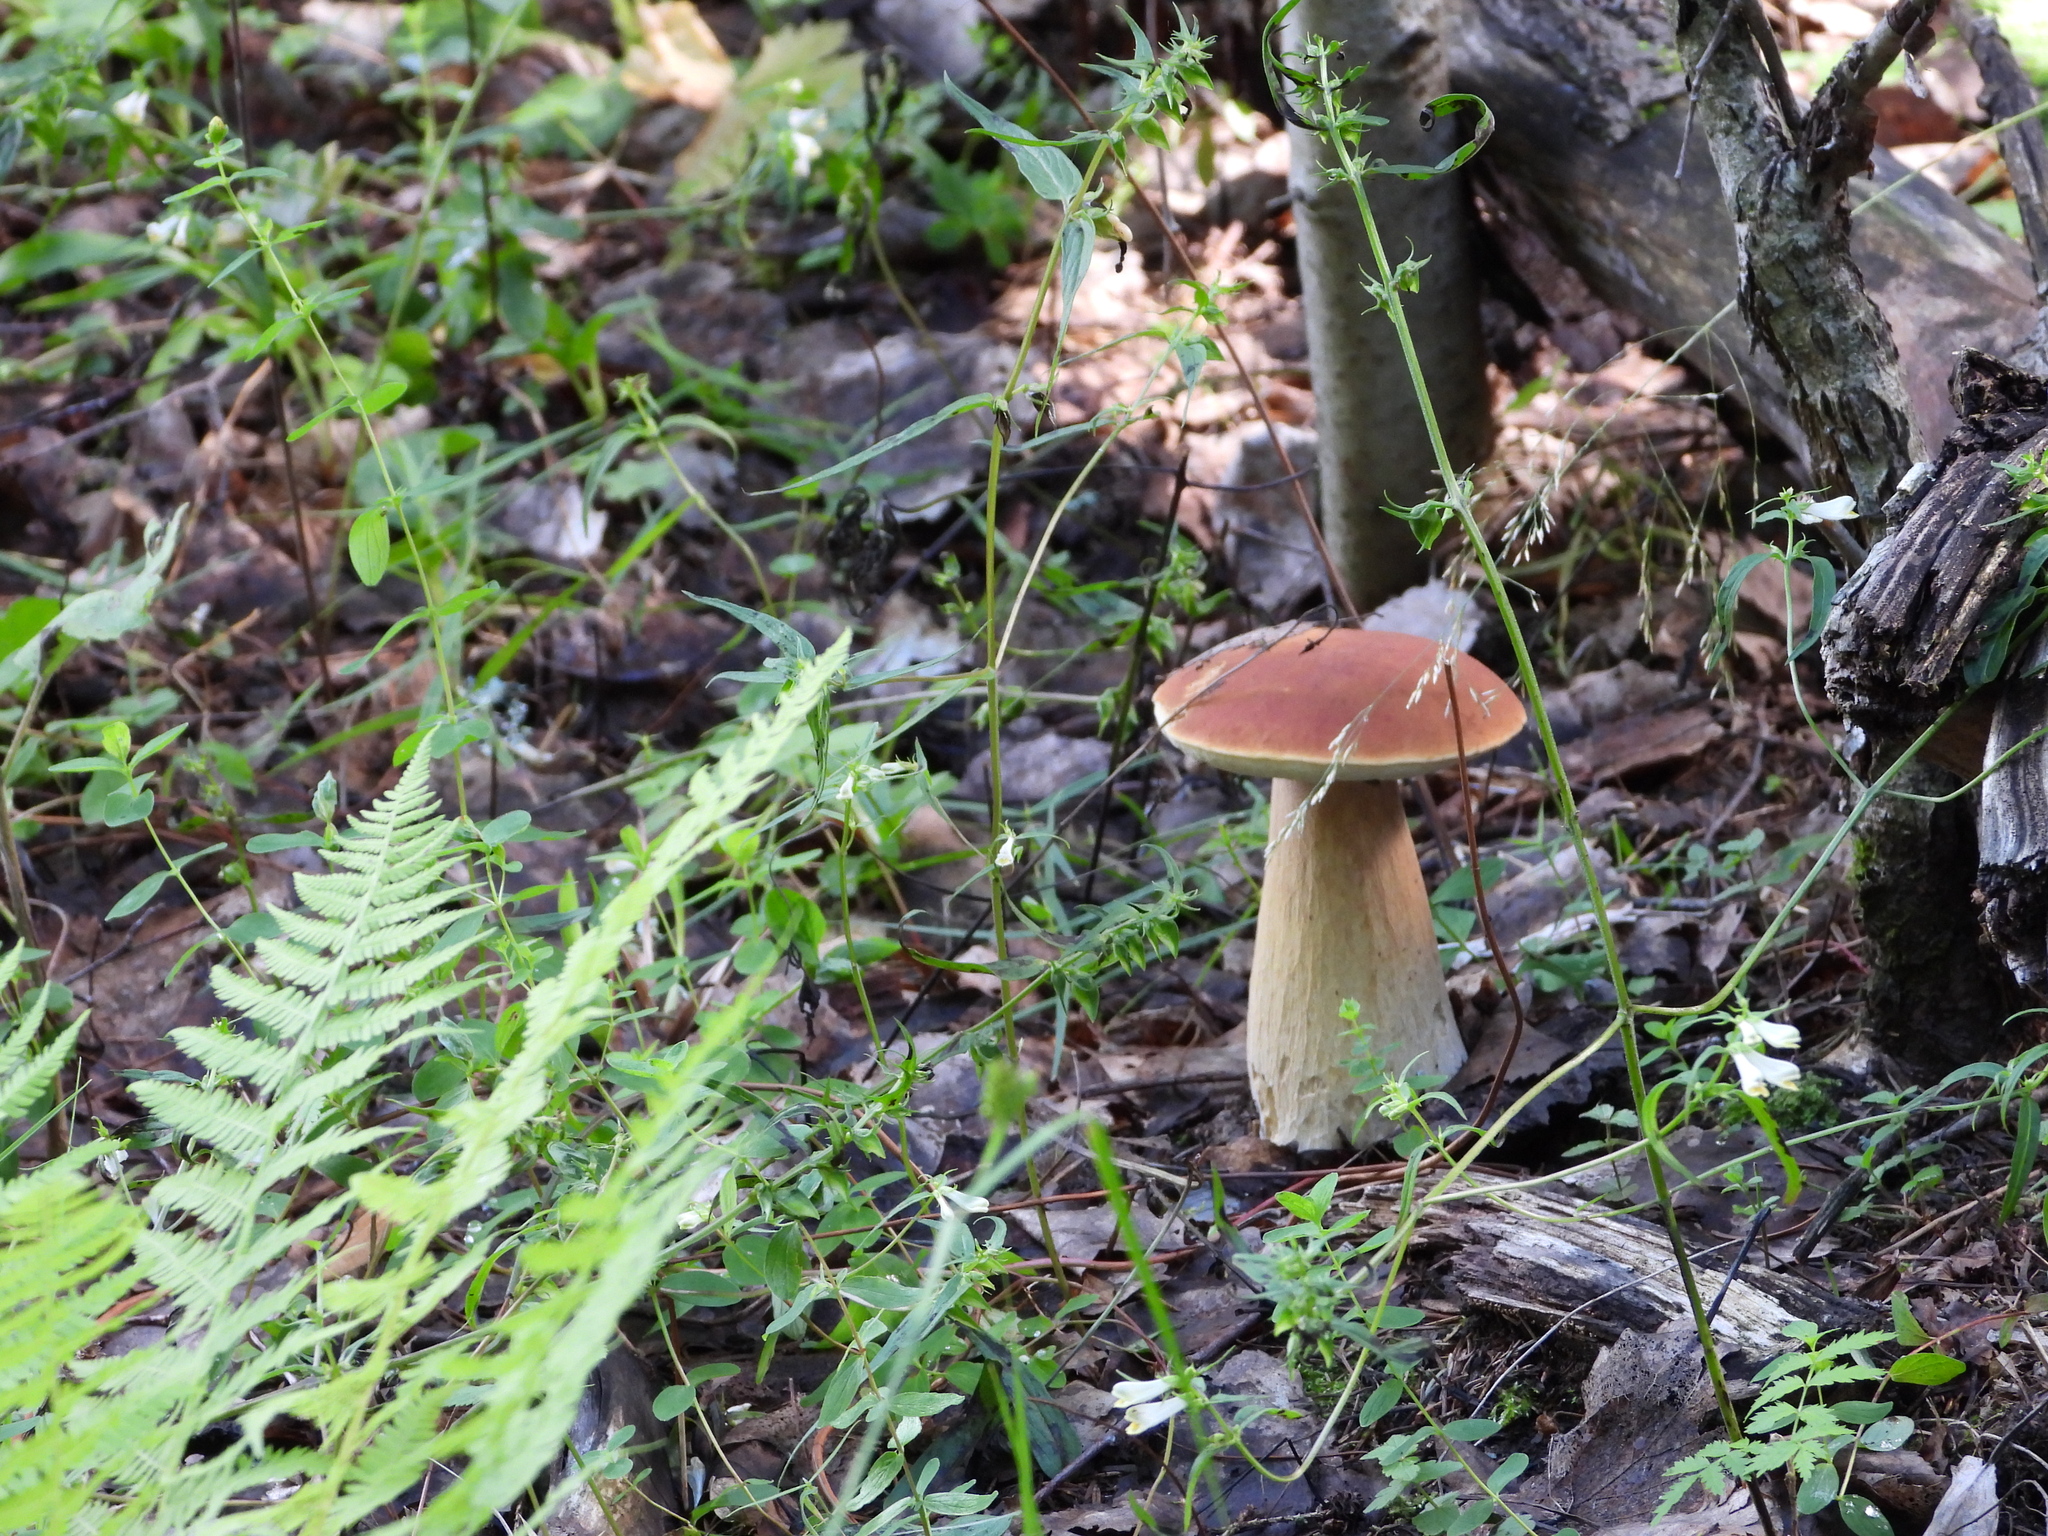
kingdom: Fungi
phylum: Basidiomycota
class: Agaricomycetes
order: Boletales
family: Boletaceae
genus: Boletus
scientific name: Boletus edulis
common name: Cep
